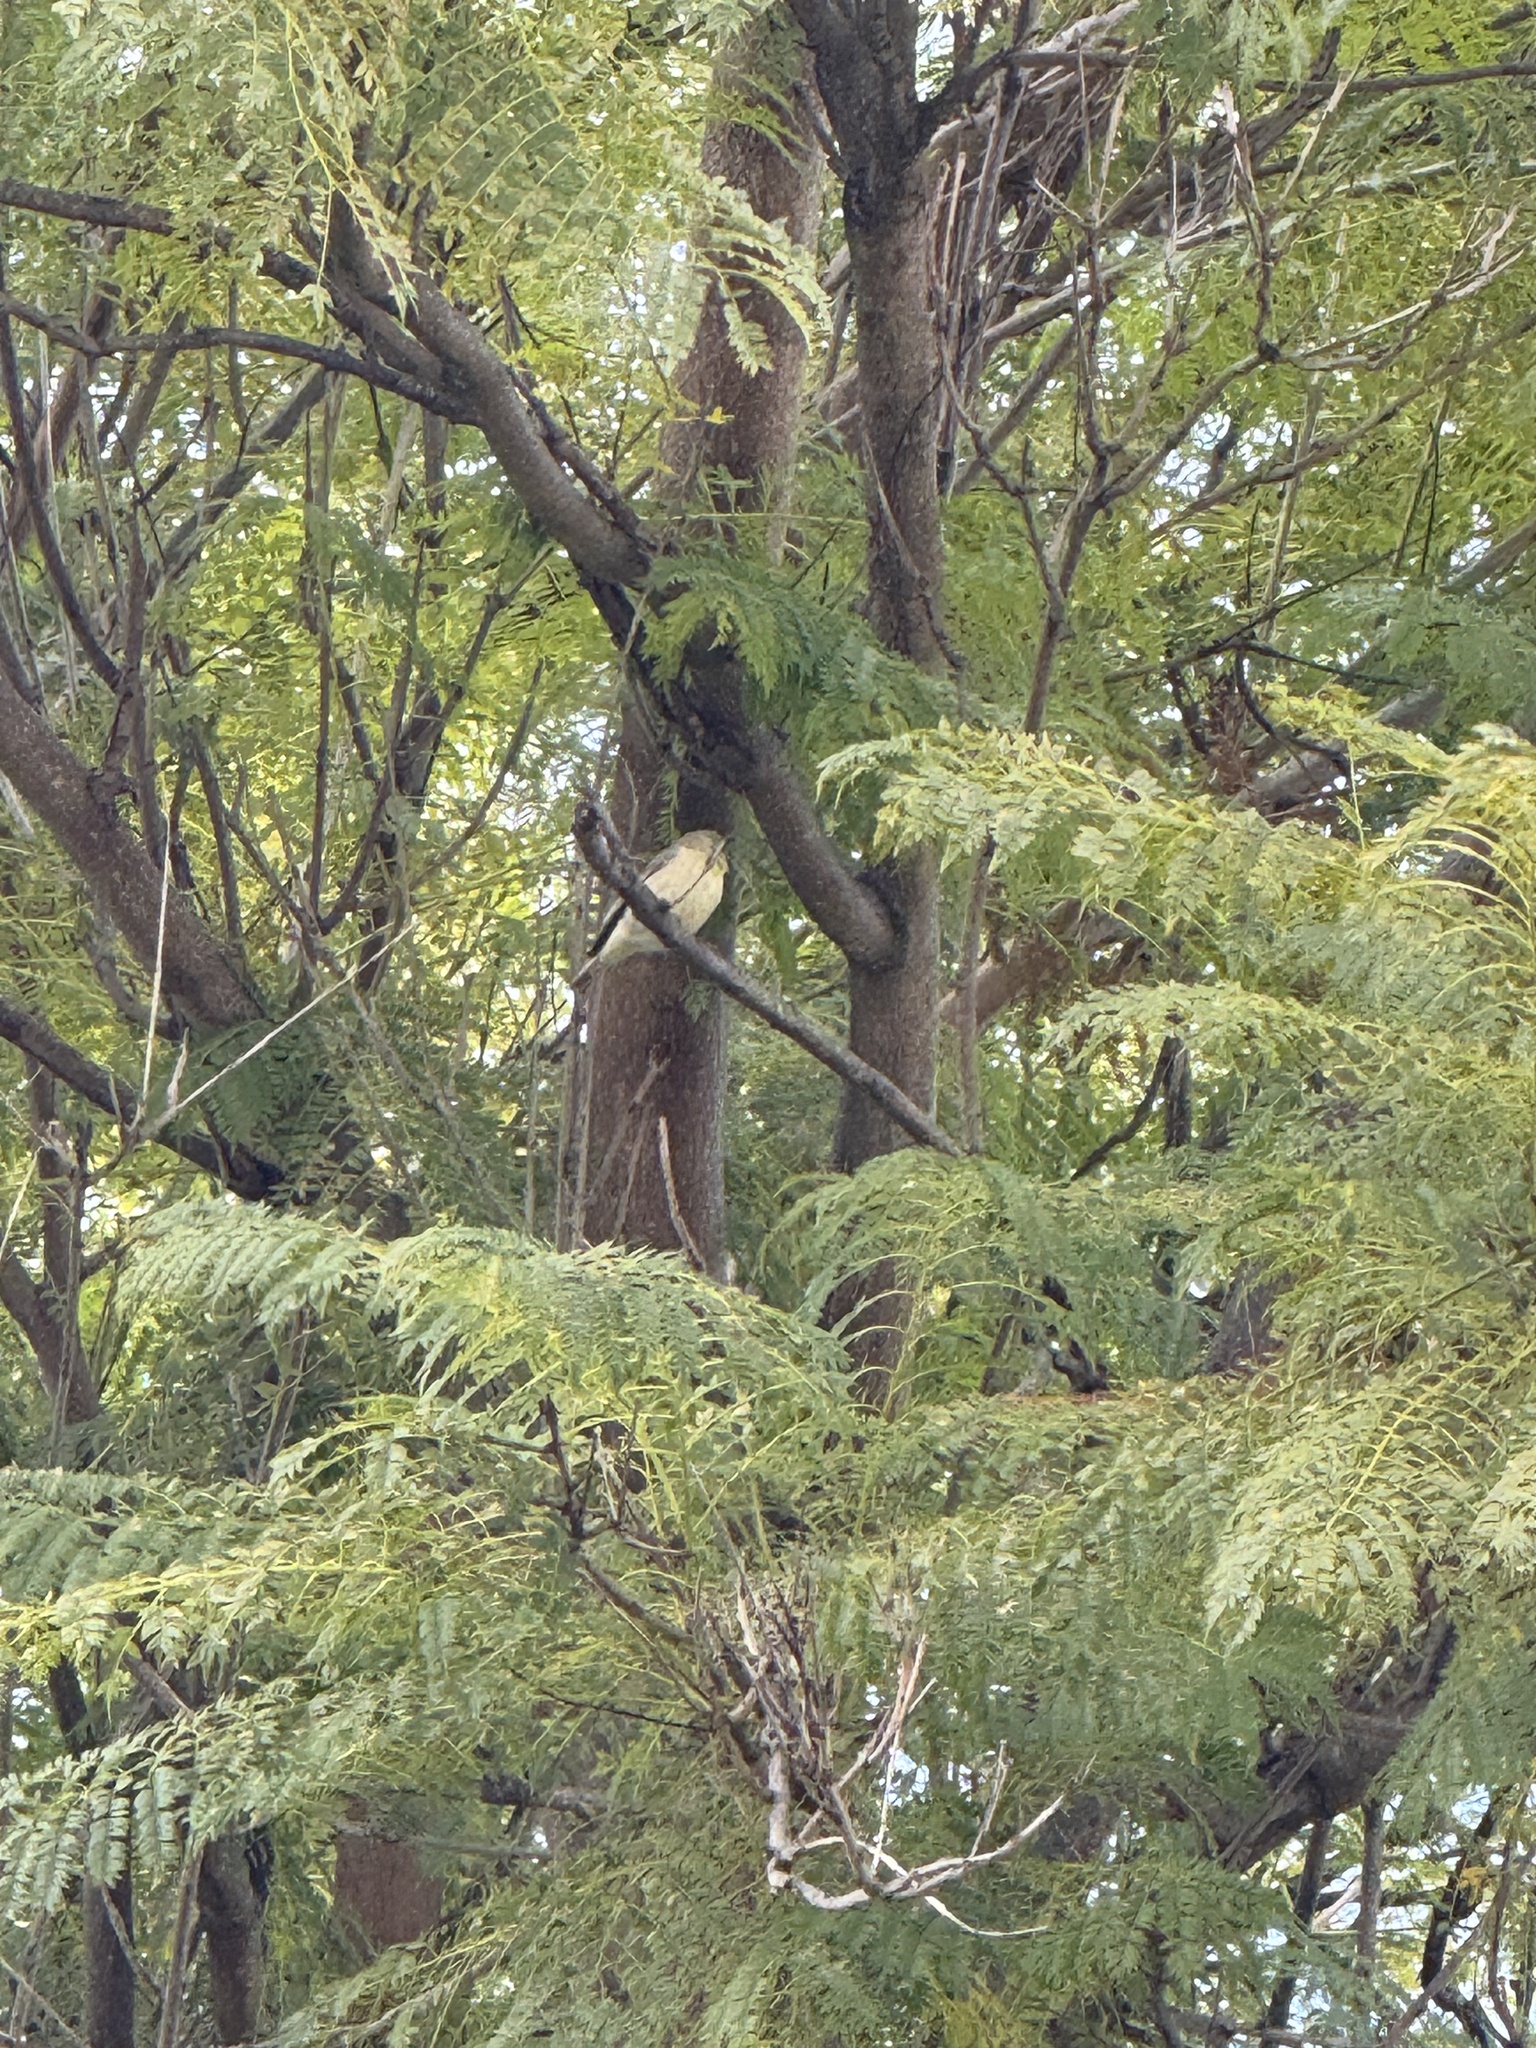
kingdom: Animalia
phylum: Chordata
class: Aves
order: Passeriformes
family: Fringillidae
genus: Spinus
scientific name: Spinus psaltria
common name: Lesser goldfinch
